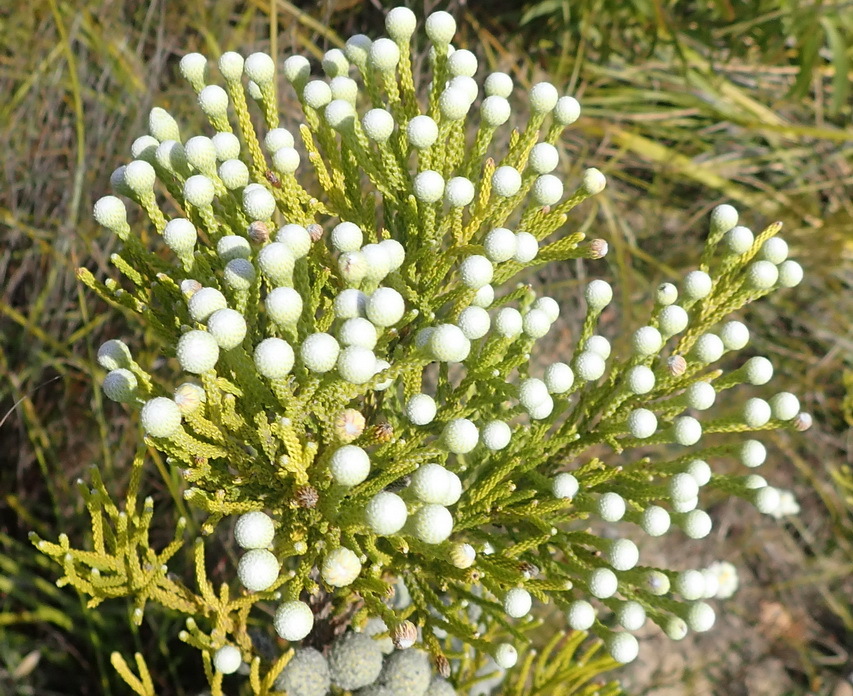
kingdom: Plantae
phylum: Tracheophyta
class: Magnoliopsida
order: Bruniales
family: Bruniaceae
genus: Brunia
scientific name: Brunia noduliflora
